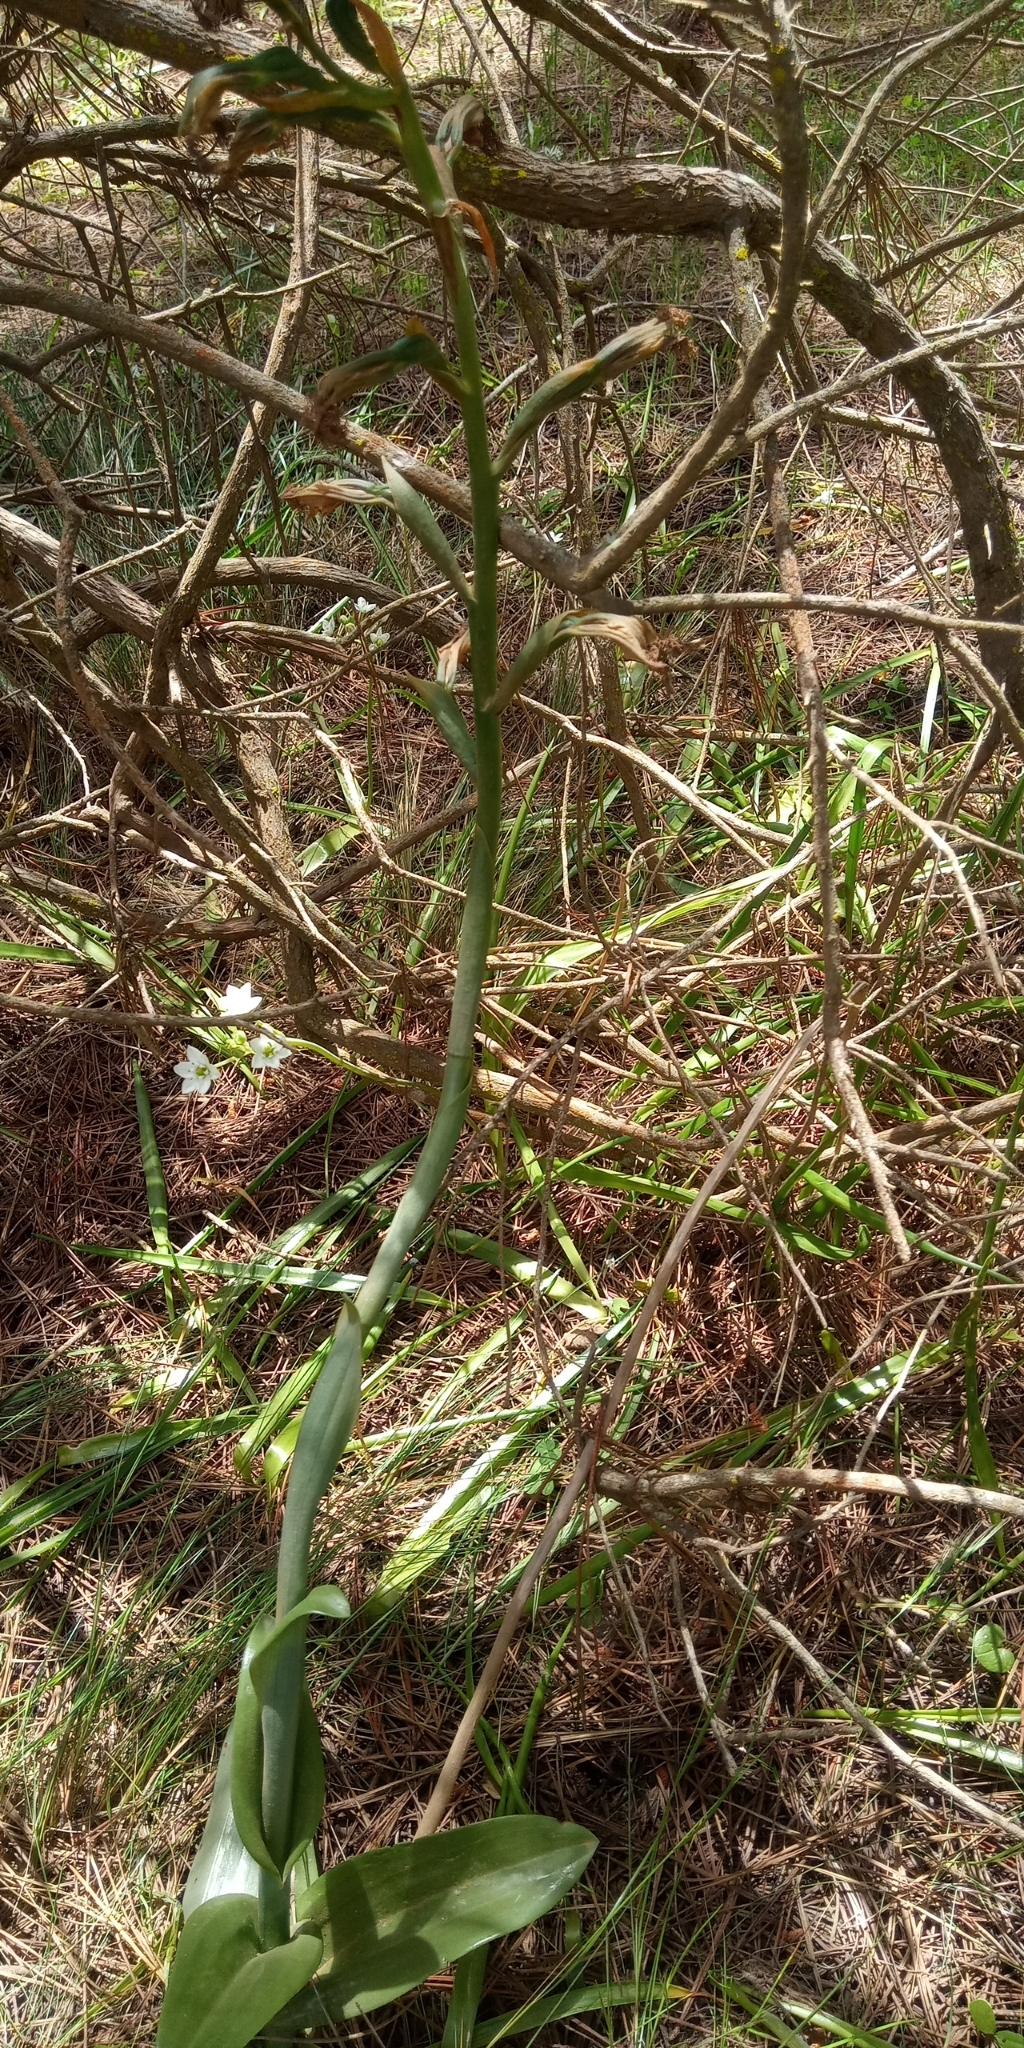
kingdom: Plantae
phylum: Tracheophyta
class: Liliopsida
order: Asparagales
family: Orchidaceae
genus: Bipinnula
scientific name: Bipinnula fimbriata
